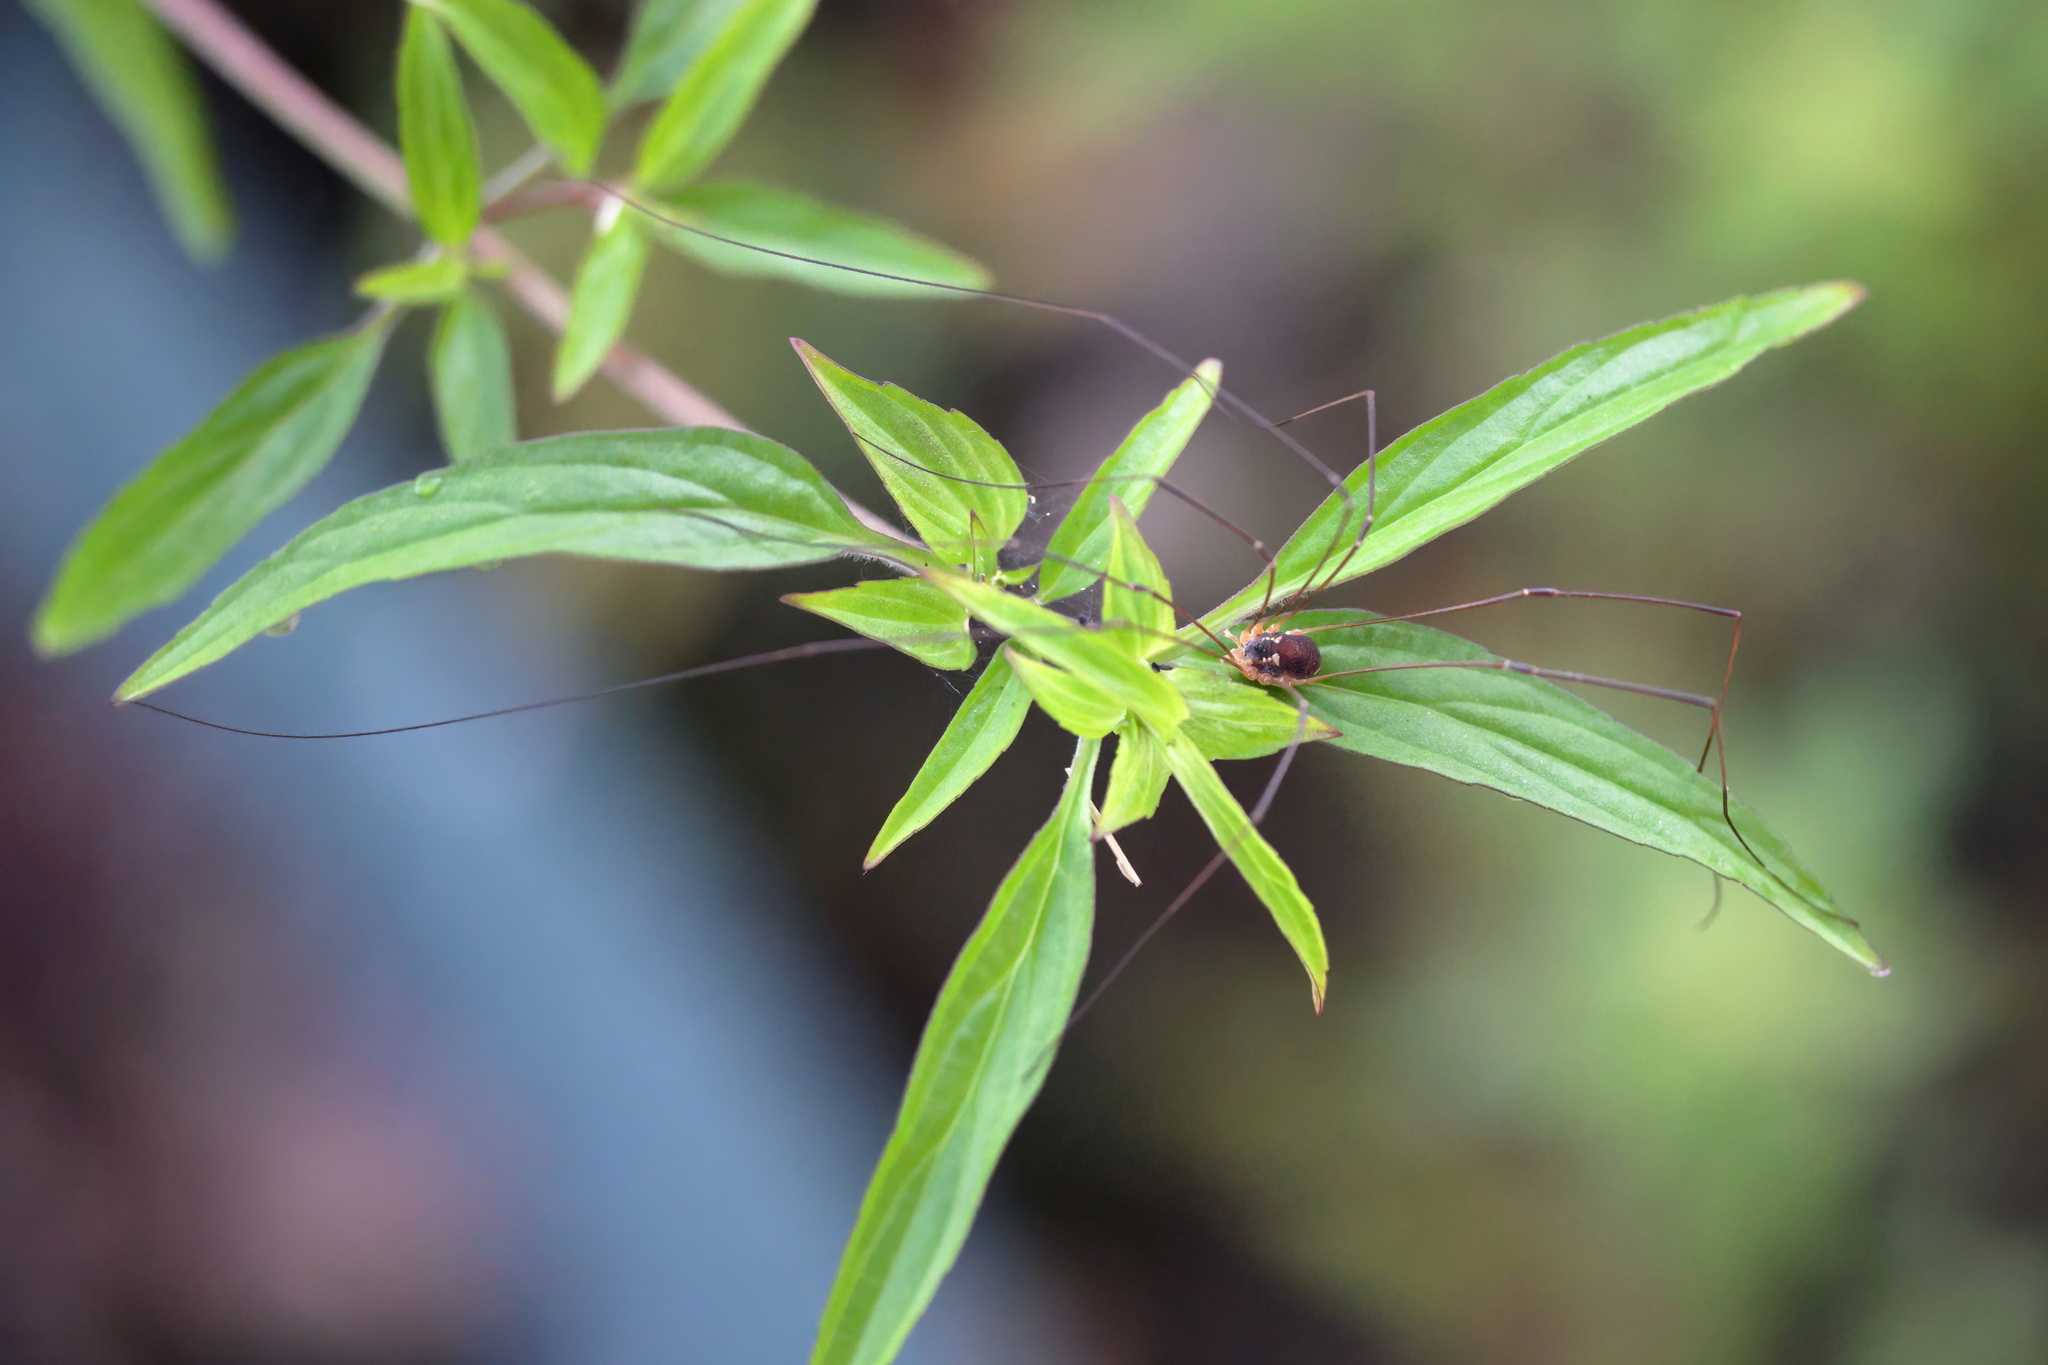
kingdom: Animalia
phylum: Arthropoda
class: Arachnida
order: Opiliones
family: Sclerosomatidae
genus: Leiobunum
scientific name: Leiobunum bimaculatum
